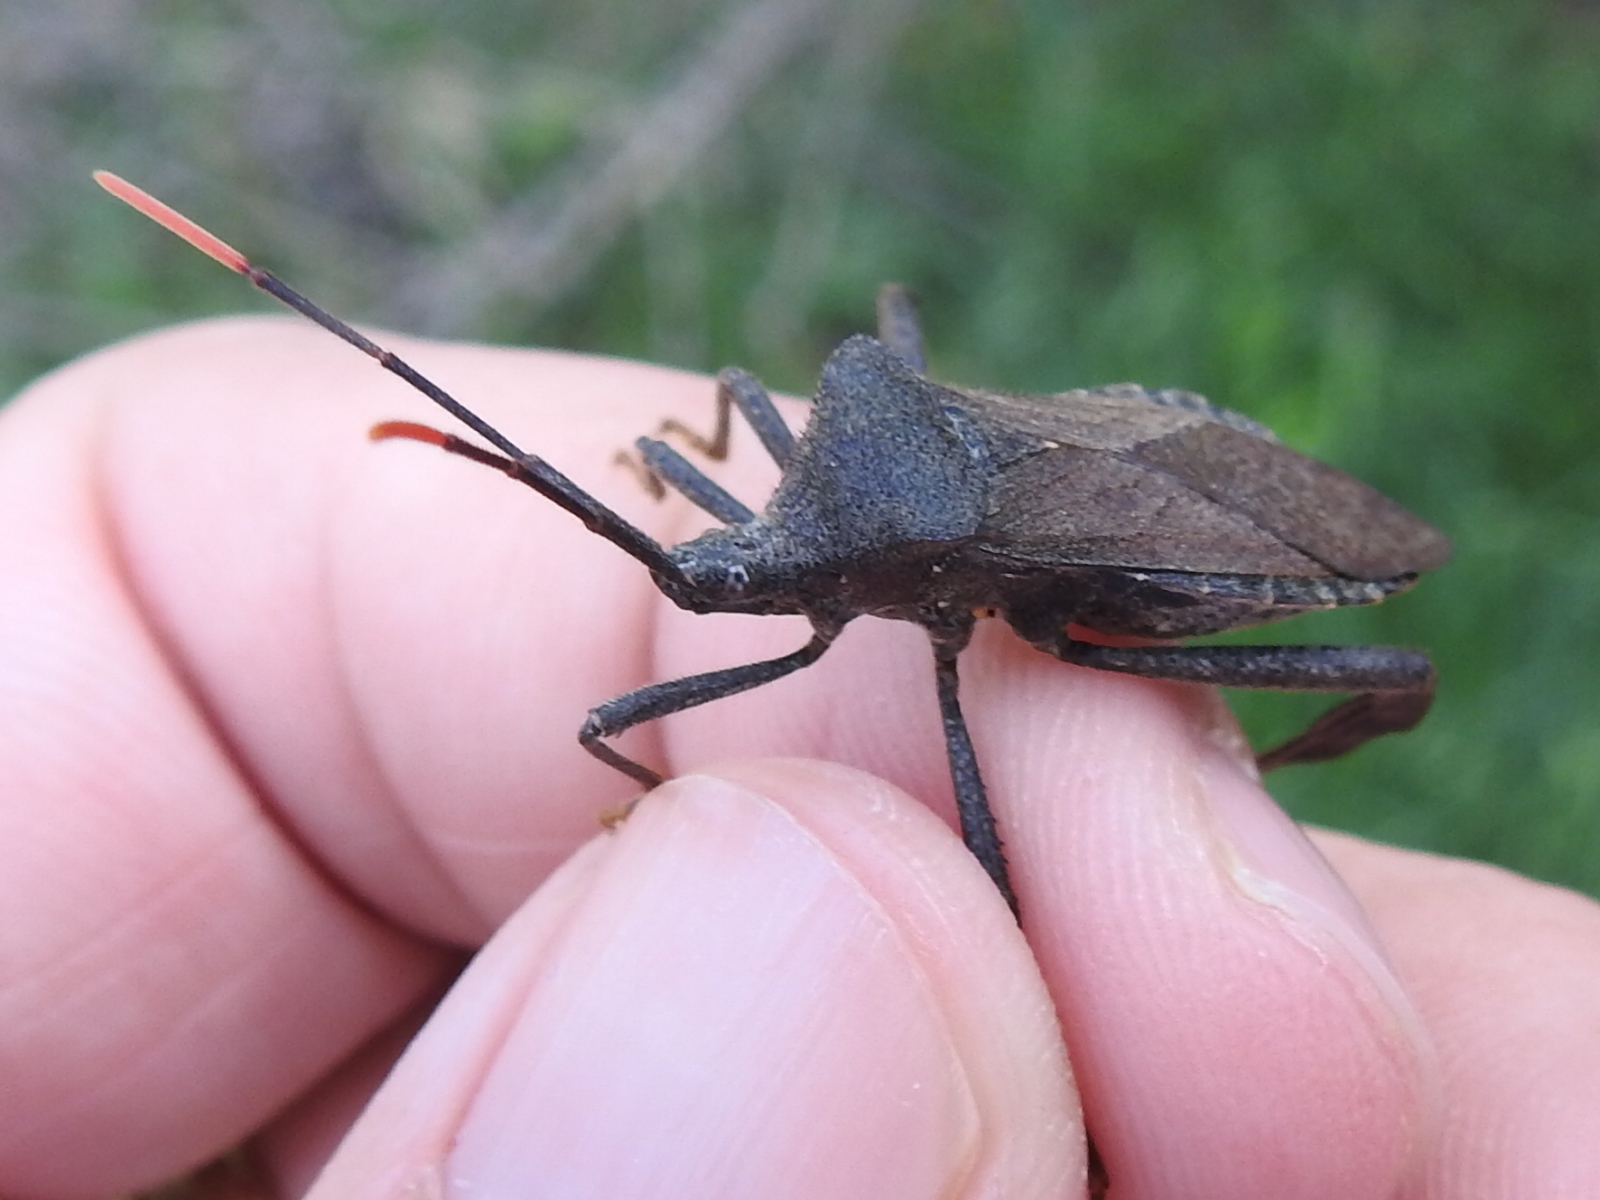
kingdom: Animalia
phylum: Arthropoda
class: Insecta
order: Hemiptera
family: Coreidae
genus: Acanthocephala
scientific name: Acanthocephala terminalis
